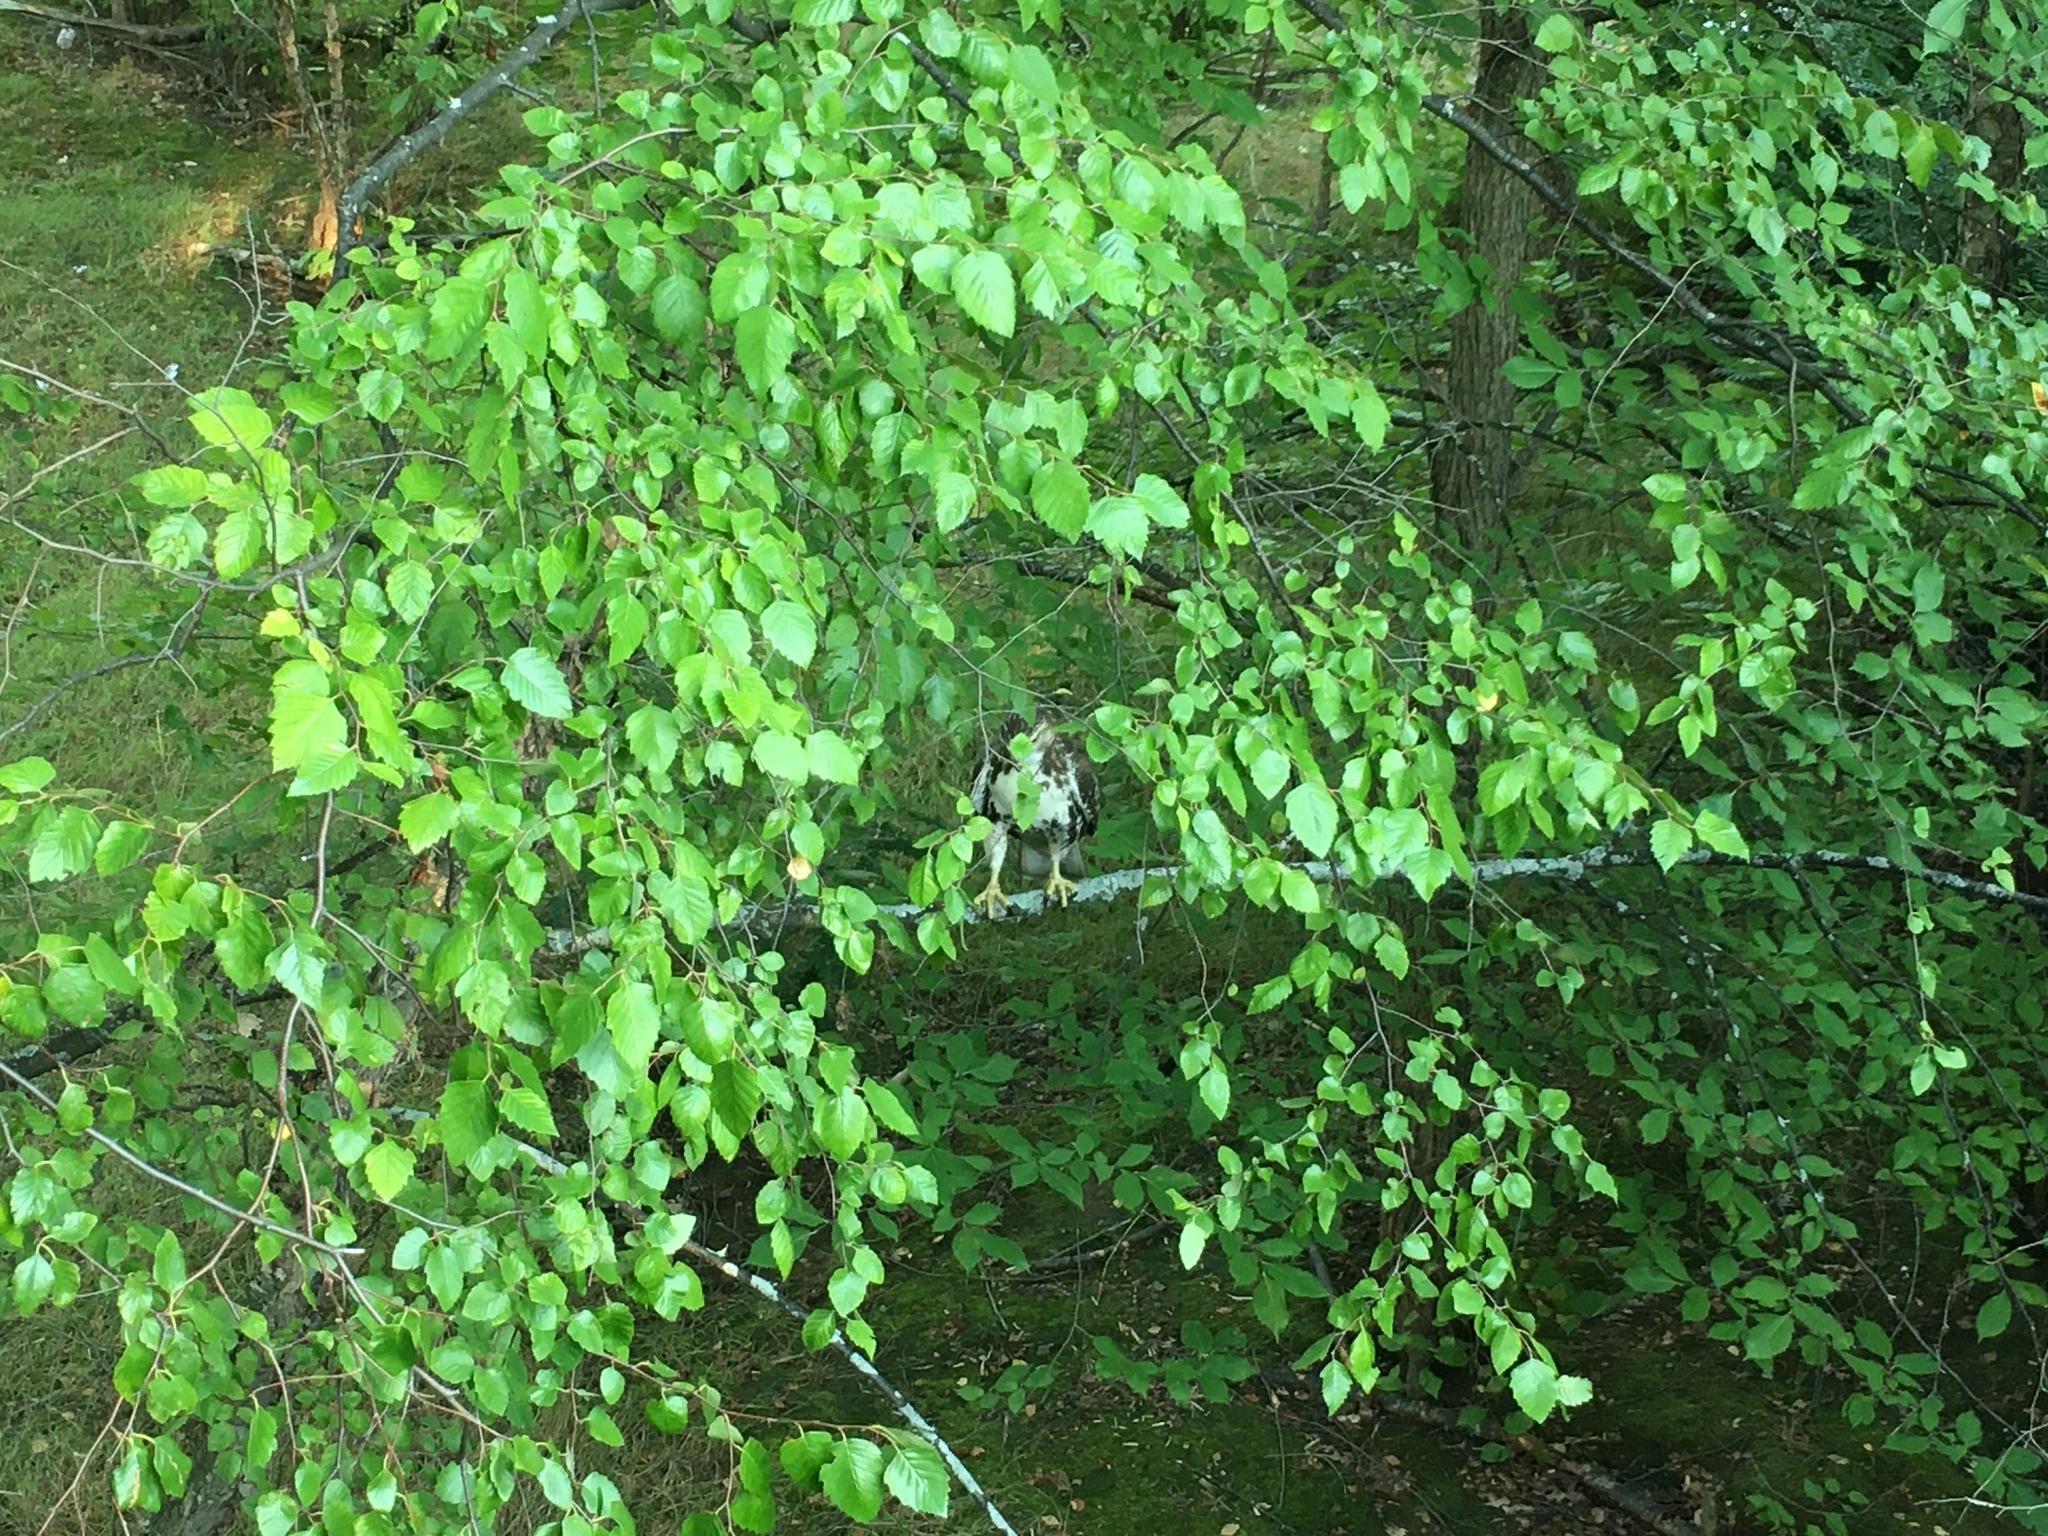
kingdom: Animalia
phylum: Chordata
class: Aves
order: Accipitriformes
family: Accipitridae
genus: Buteo
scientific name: Buteo jamaicensis
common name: Red-tailed hawk
